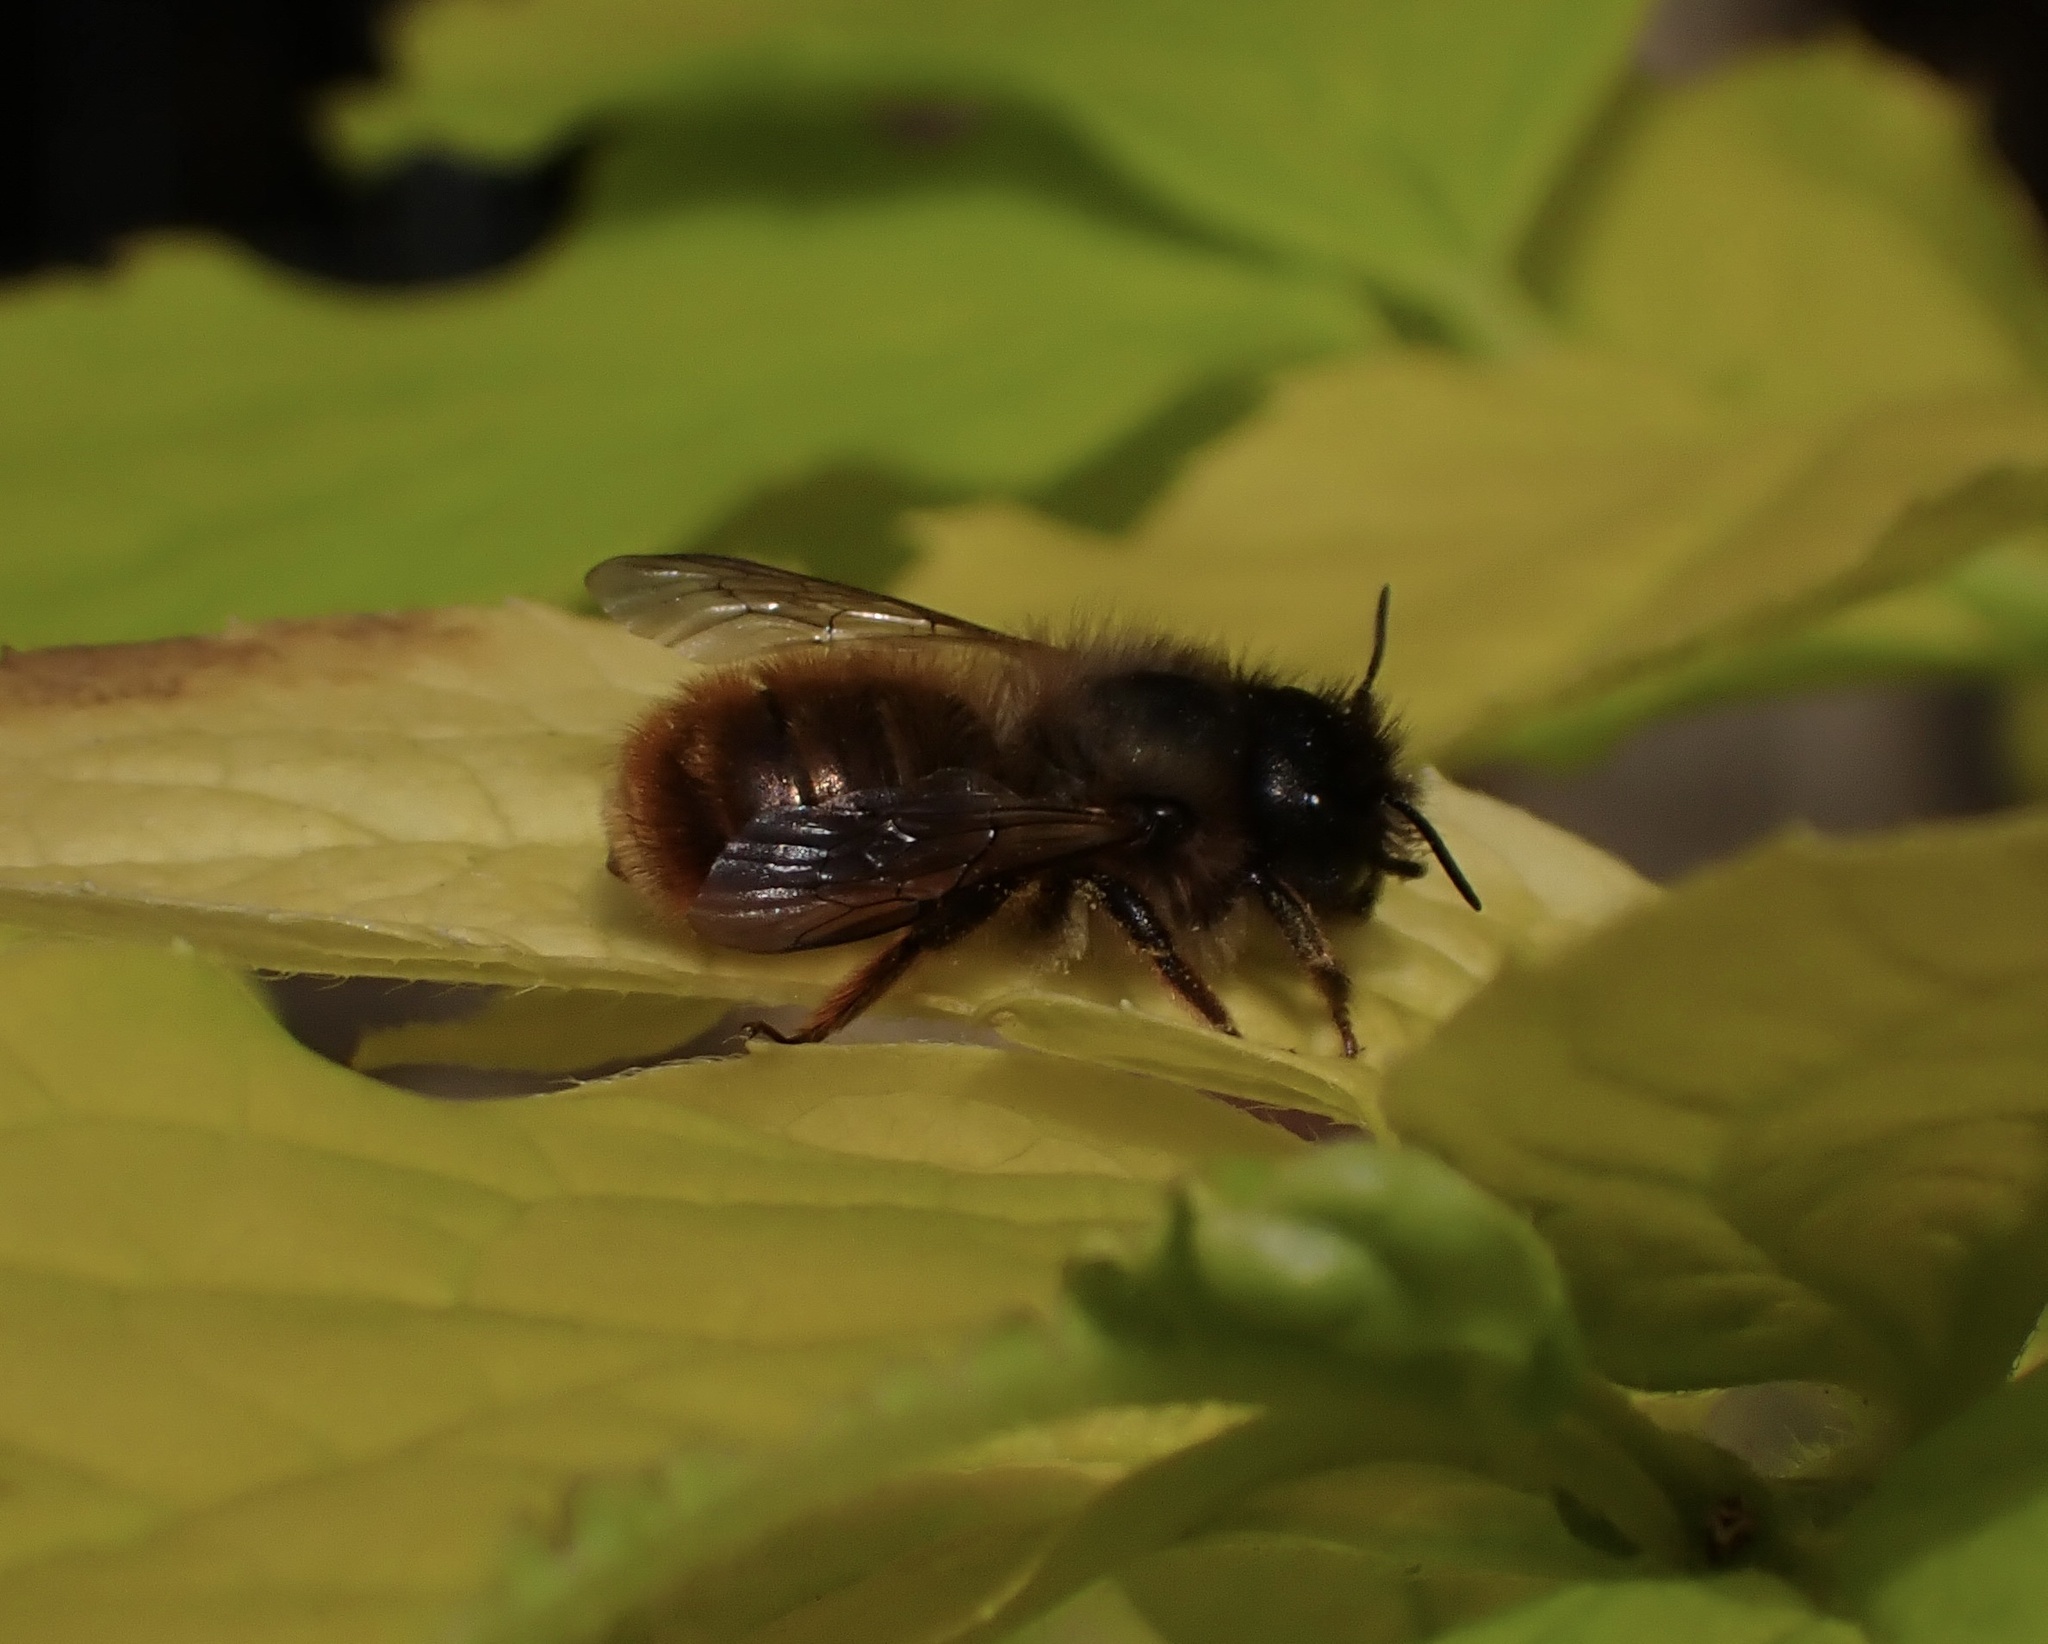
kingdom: Animalia
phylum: Arthropoda
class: Insecta
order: Hymenoptera
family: Megachilidae
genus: Osmia
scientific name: Osmia bicornis
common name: Red mason bee
